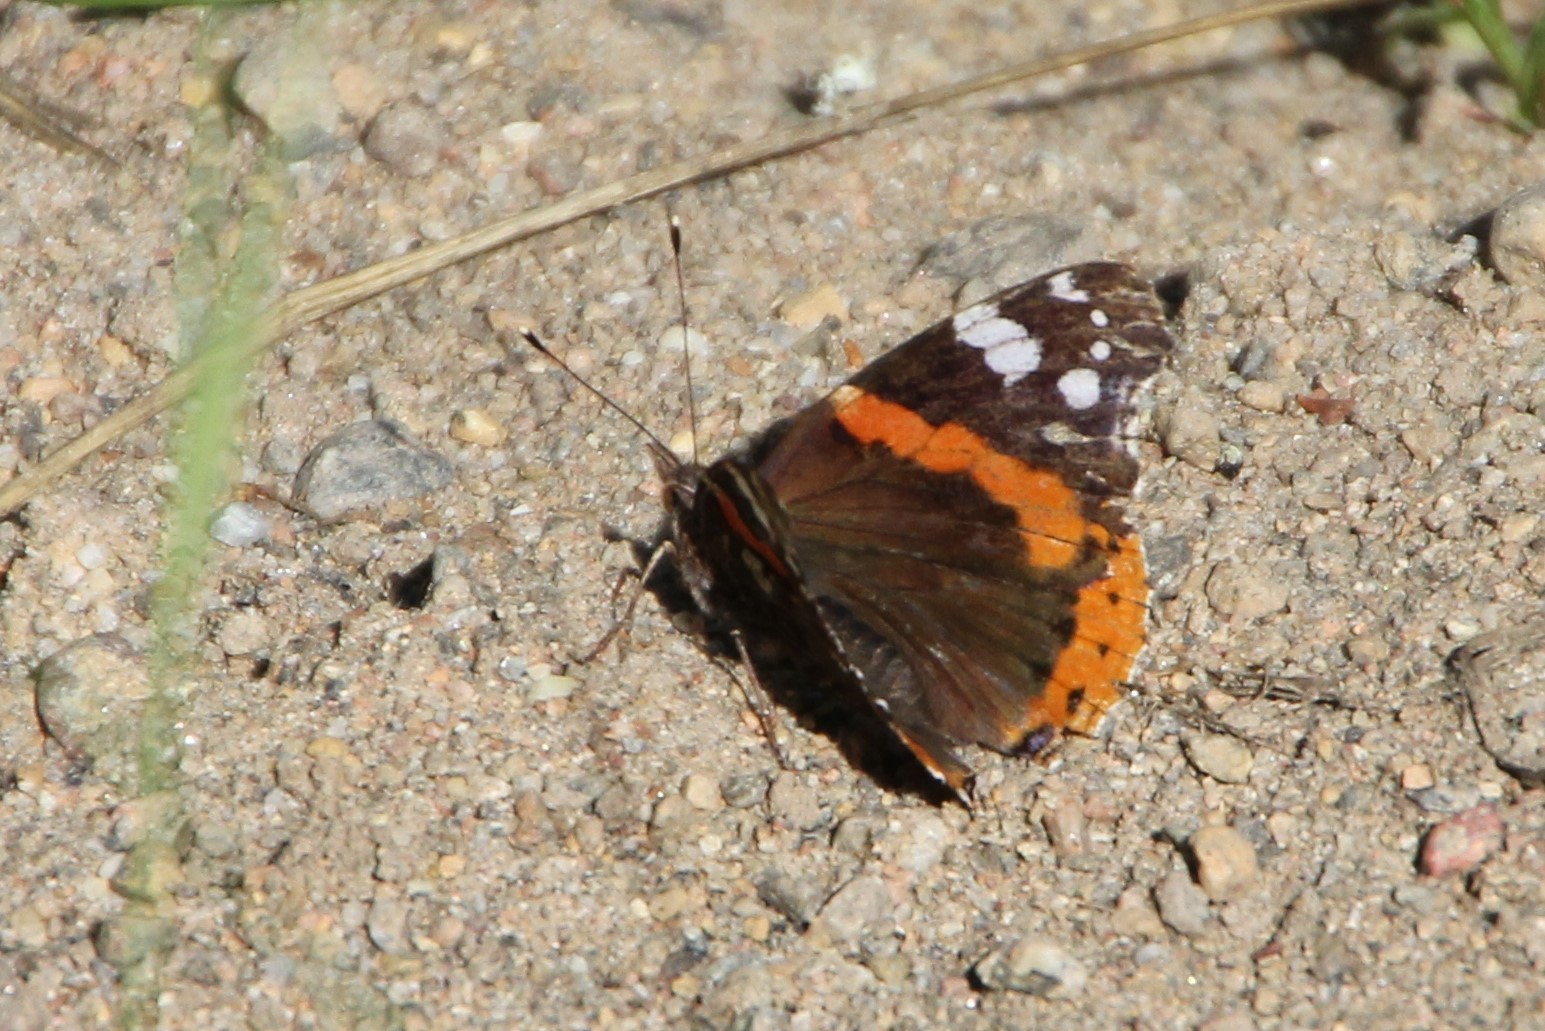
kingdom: Animalia
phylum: Arthropoda
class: Insecta
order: Lepidoptera
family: Nymphalidae
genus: Vanessa
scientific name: Vanessa atalanta
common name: Red admiral
